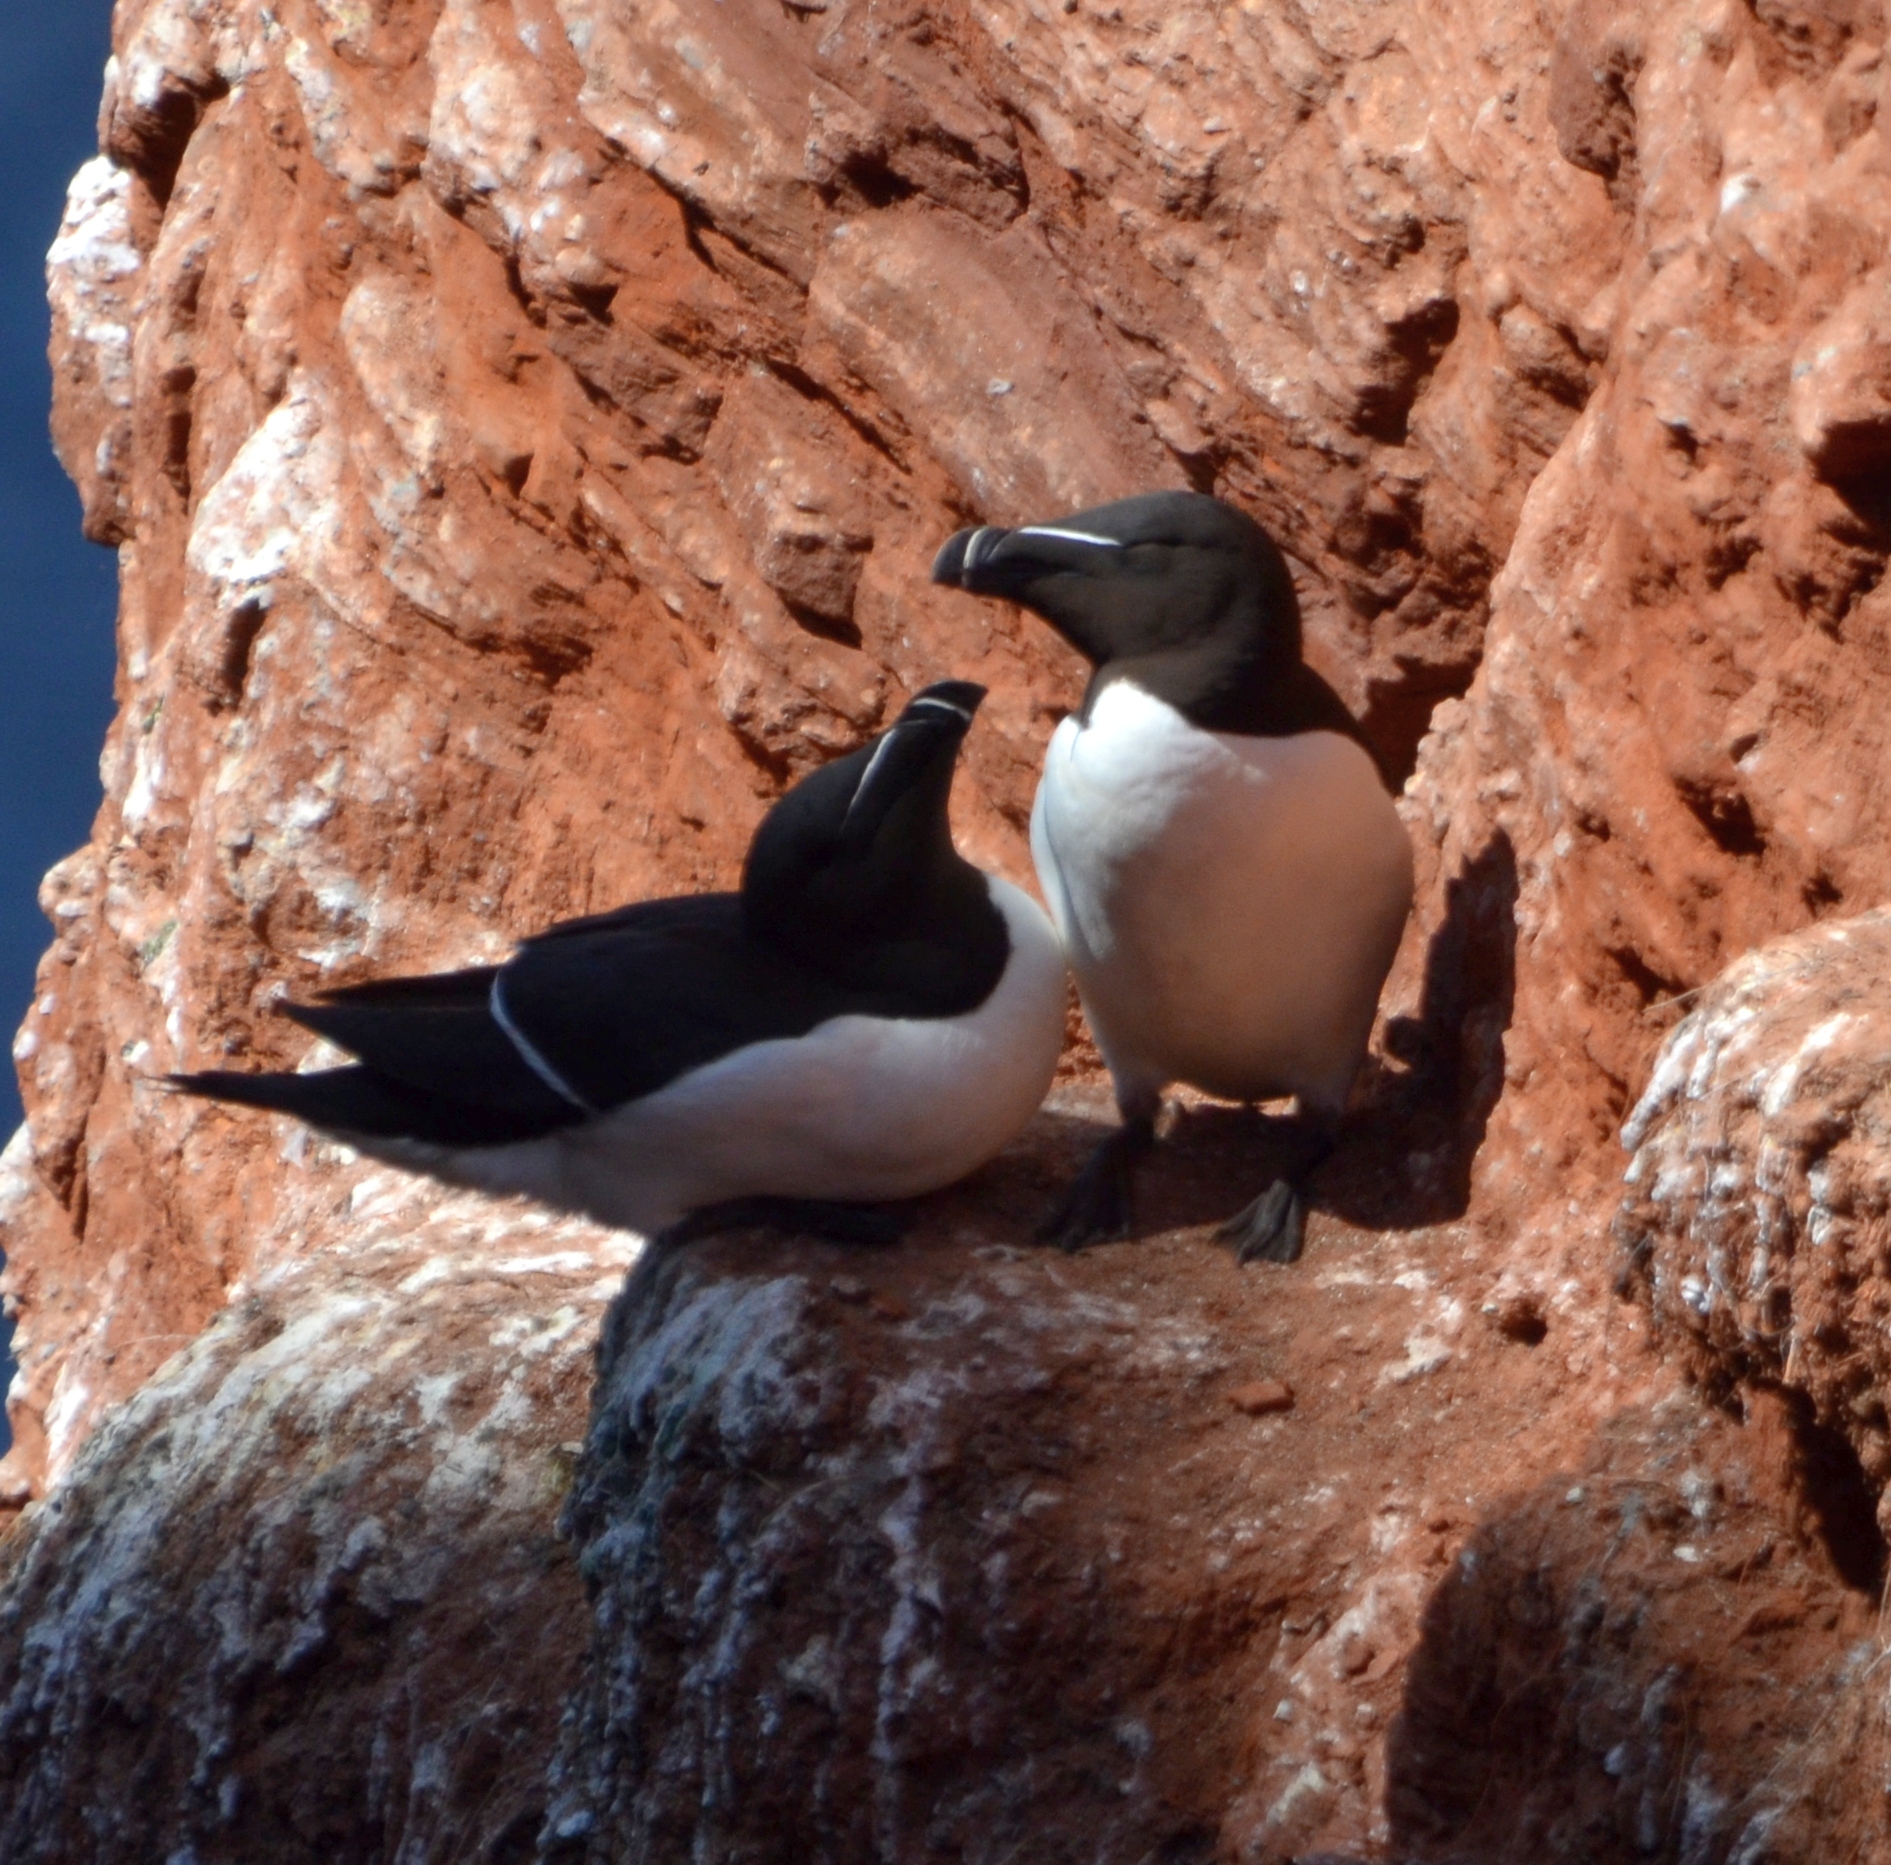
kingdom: Animalia
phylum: Chordata
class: Aves
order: Charadriiformes
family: Alcidae
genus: Alca
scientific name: Alca torda
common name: Razorbill
